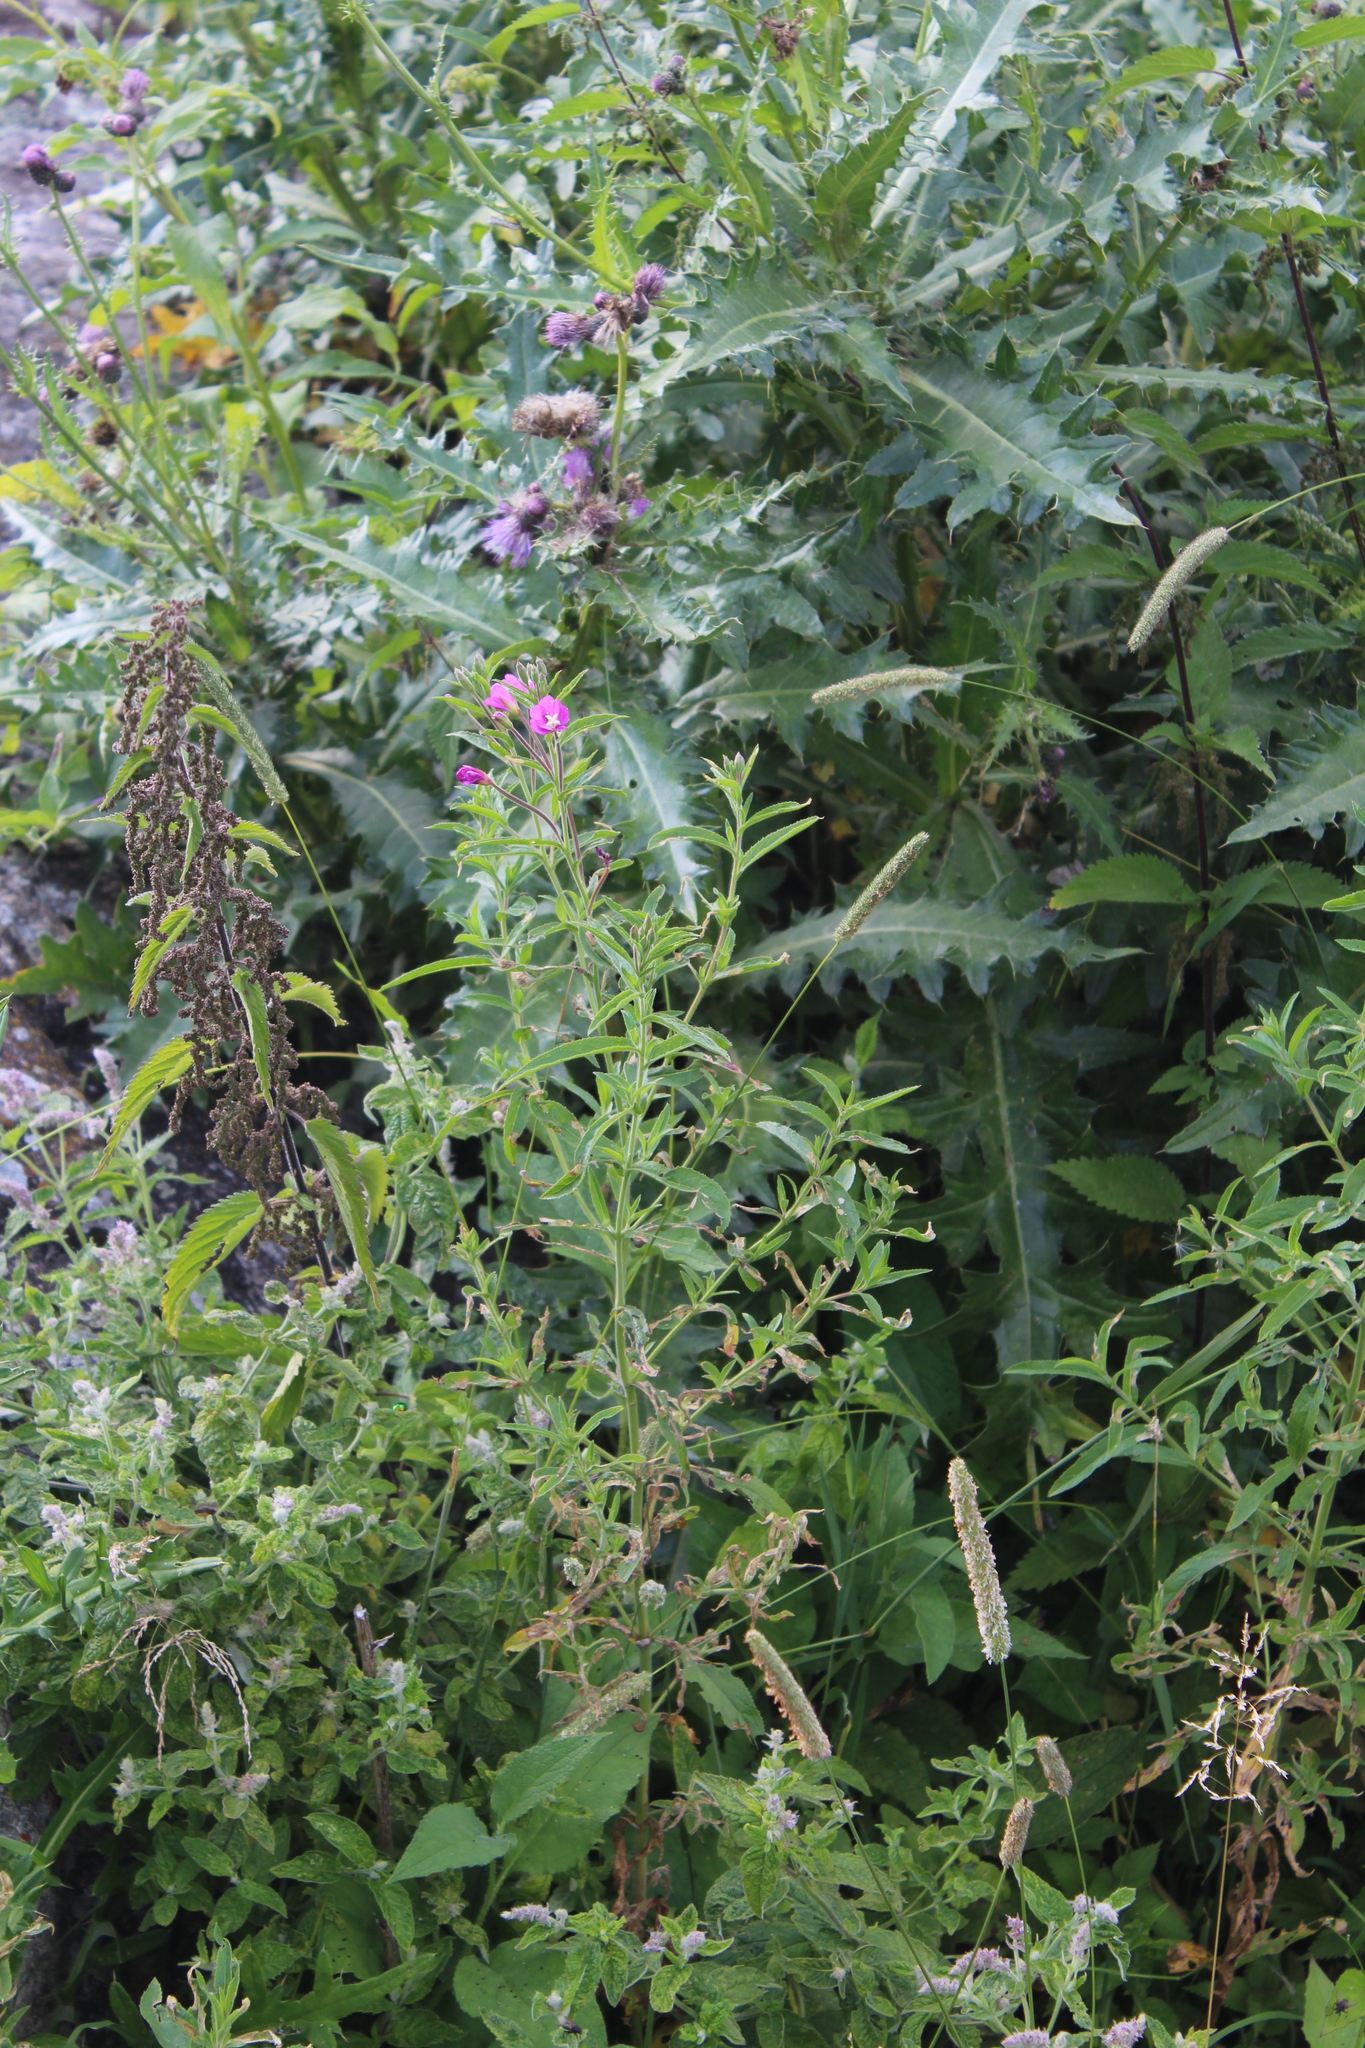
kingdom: Plantae
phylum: Tracheophyta
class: Magnoliopsida
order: Myrtales
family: Onagraceae
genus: Epilobium
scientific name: Epilobium hirsutum
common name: Great willowherb
